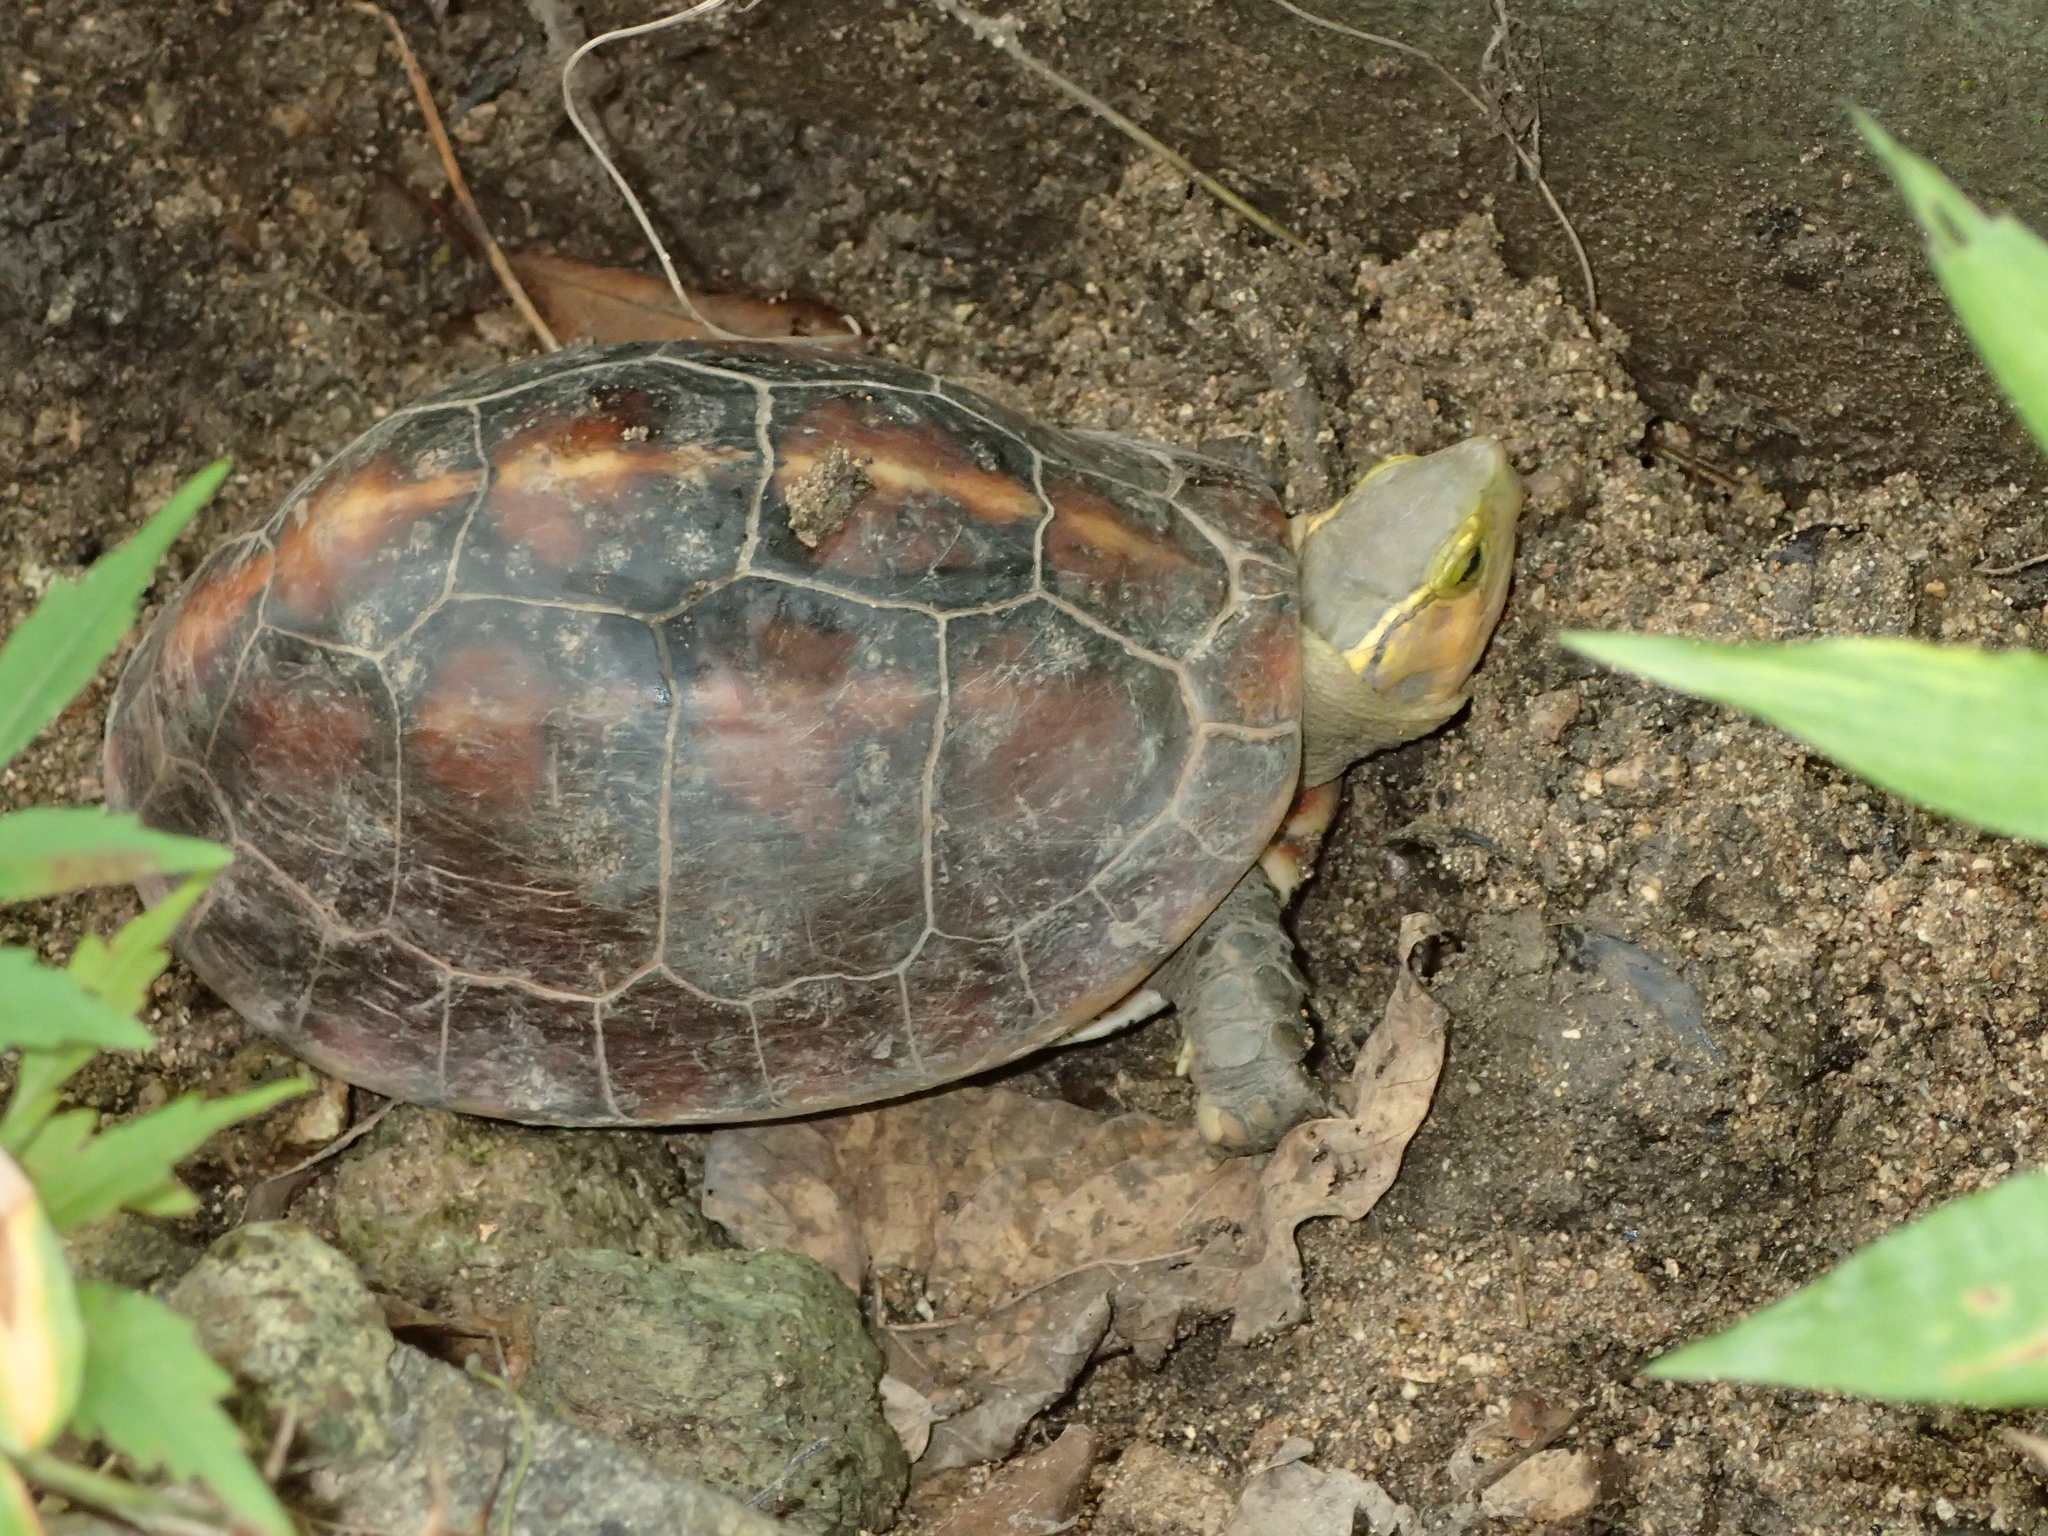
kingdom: Animalia
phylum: Chordata
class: Testudines
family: Geoemydidae
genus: Cuora
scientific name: Cuora flavomarginata
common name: Yellow-margined box turtle
